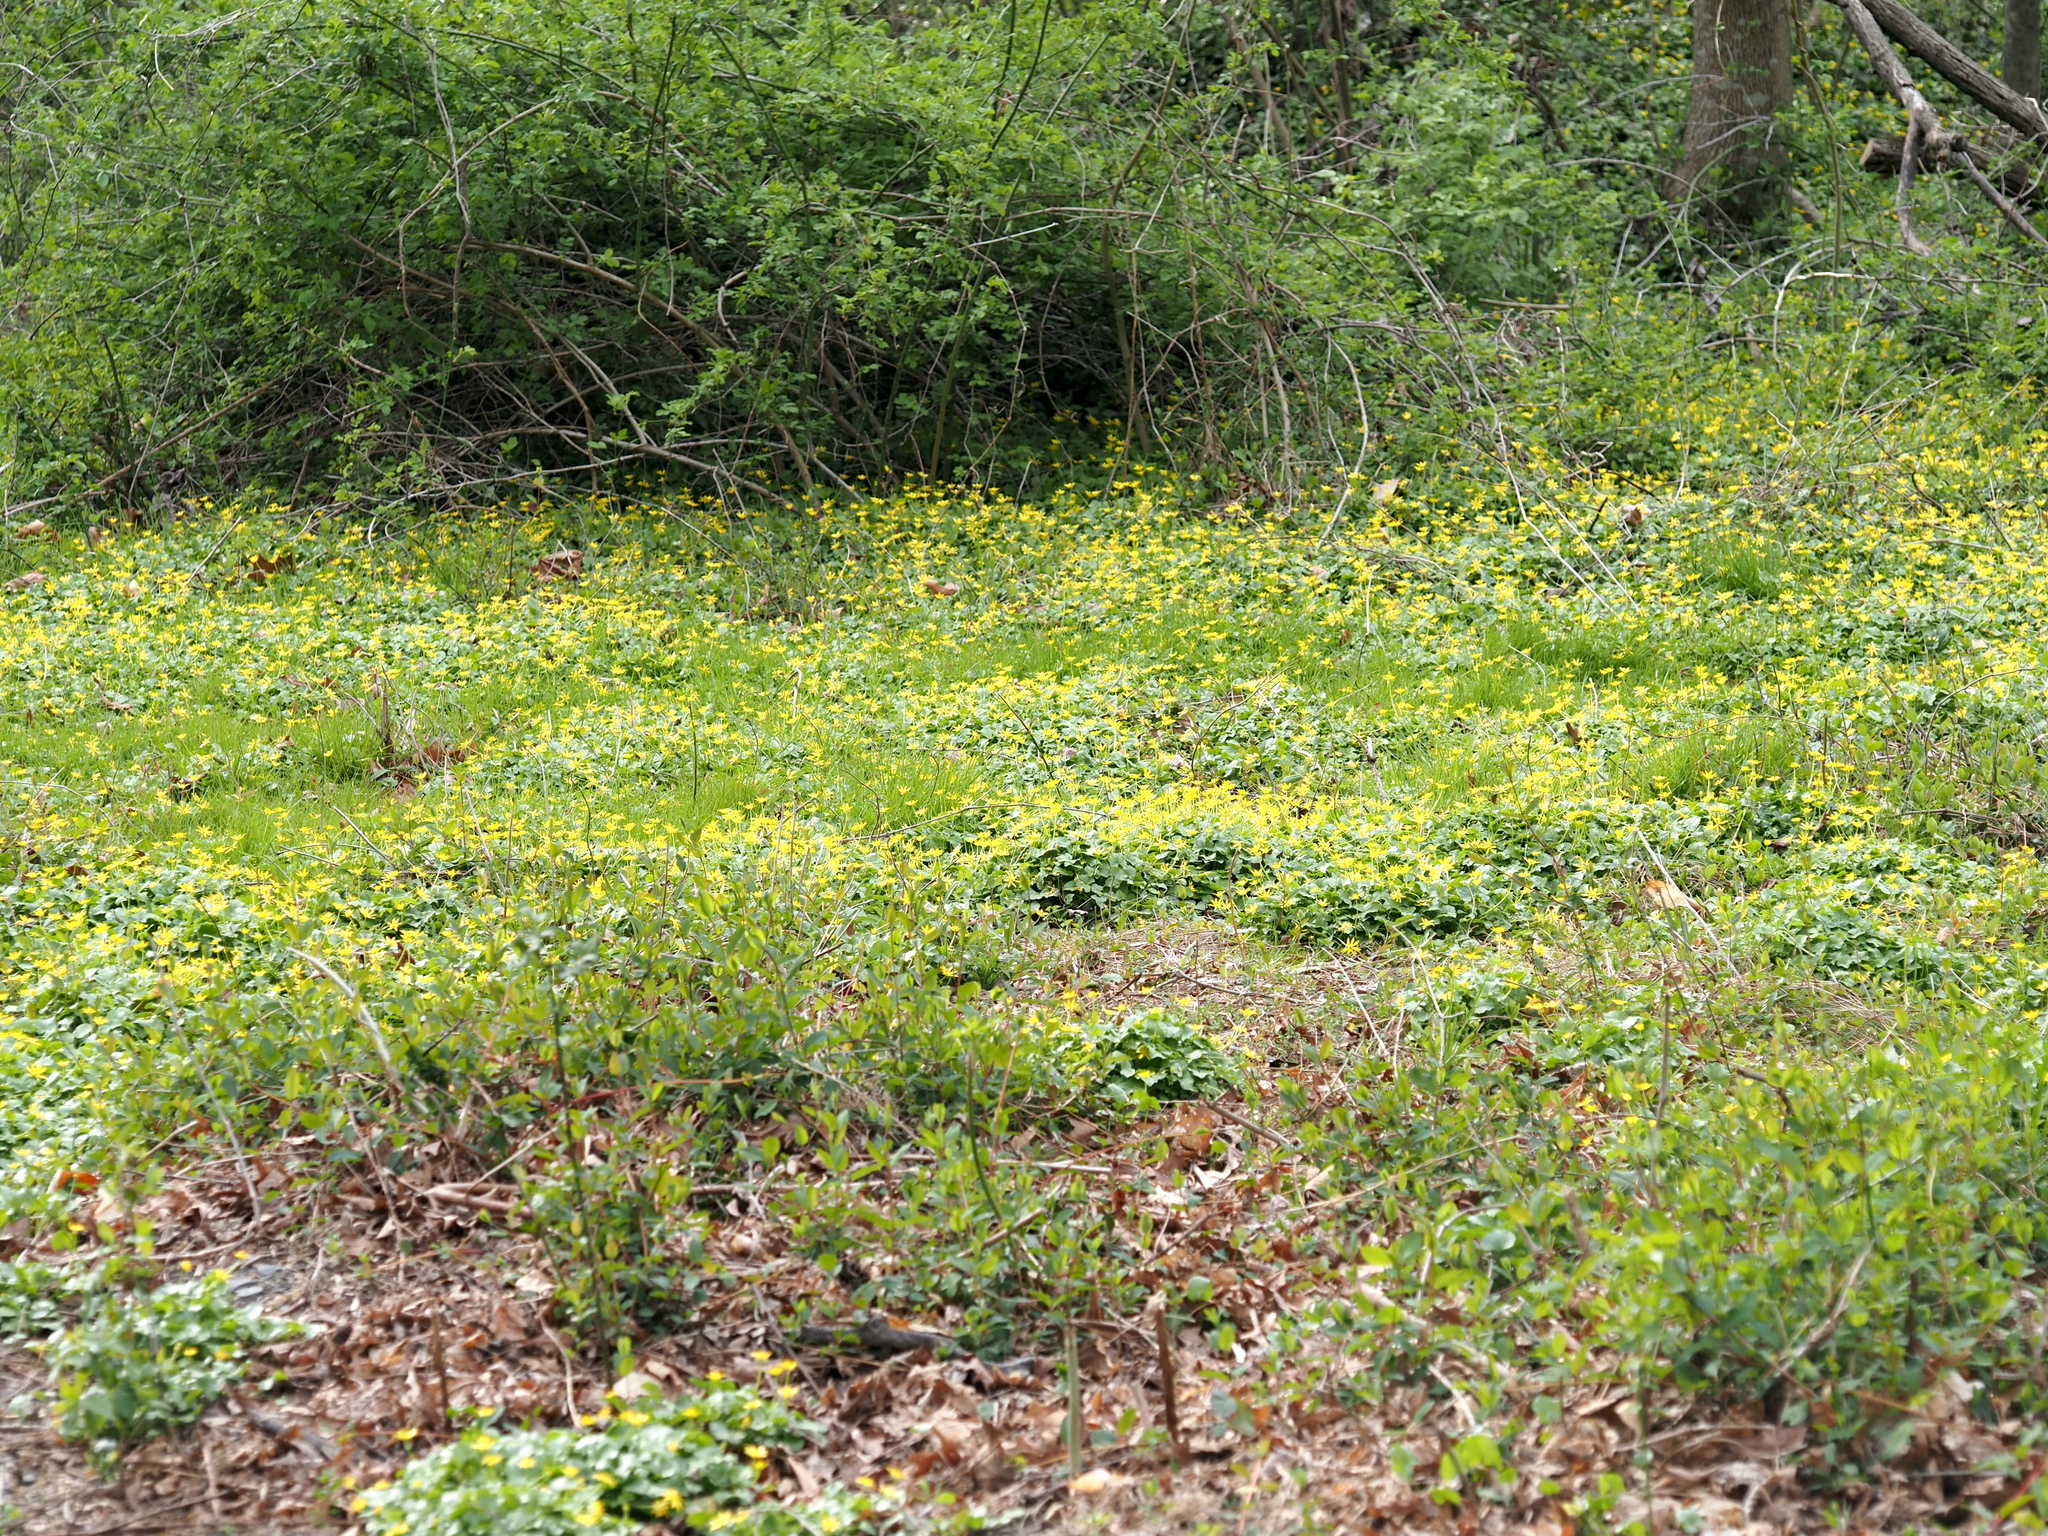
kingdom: Plantae
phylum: Tracheophyta
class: Magnoliopsida
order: Ranunculales
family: Ranunculaceae
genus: Ficaria
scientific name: Ficaria verna
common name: Lesser celandine
